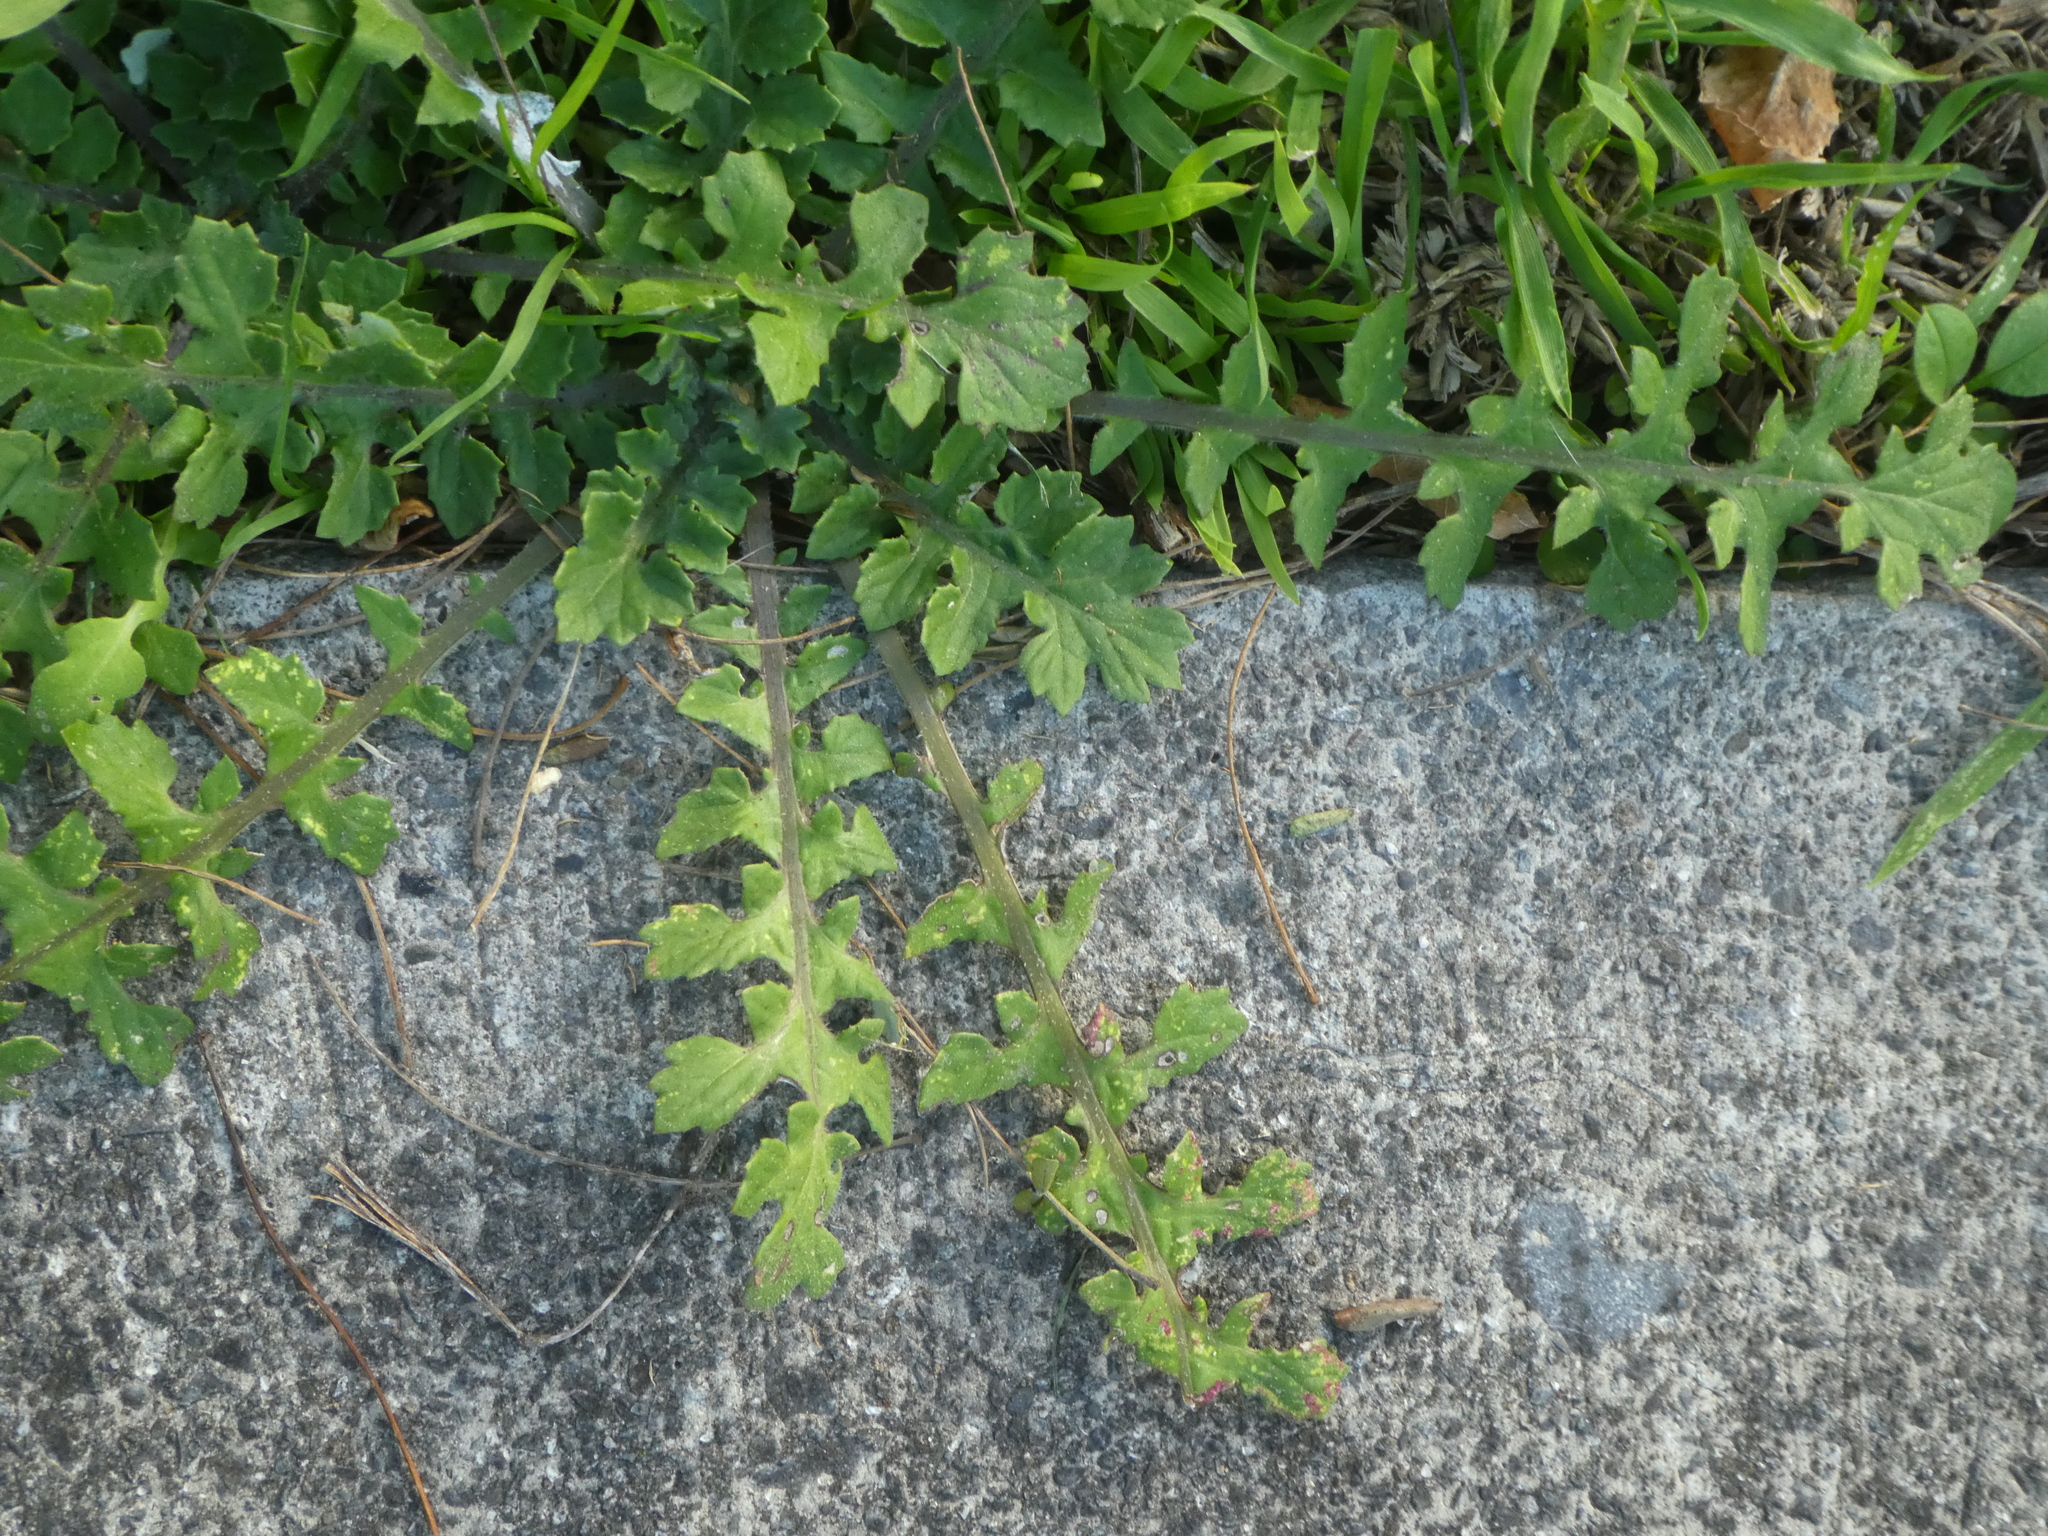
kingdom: Plantae
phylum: Tracheophyta
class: Magnoliopsida
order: Asterales
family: Asteraceae
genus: Arctotheca
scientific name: Arctotheca calendula
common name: Capeweed
